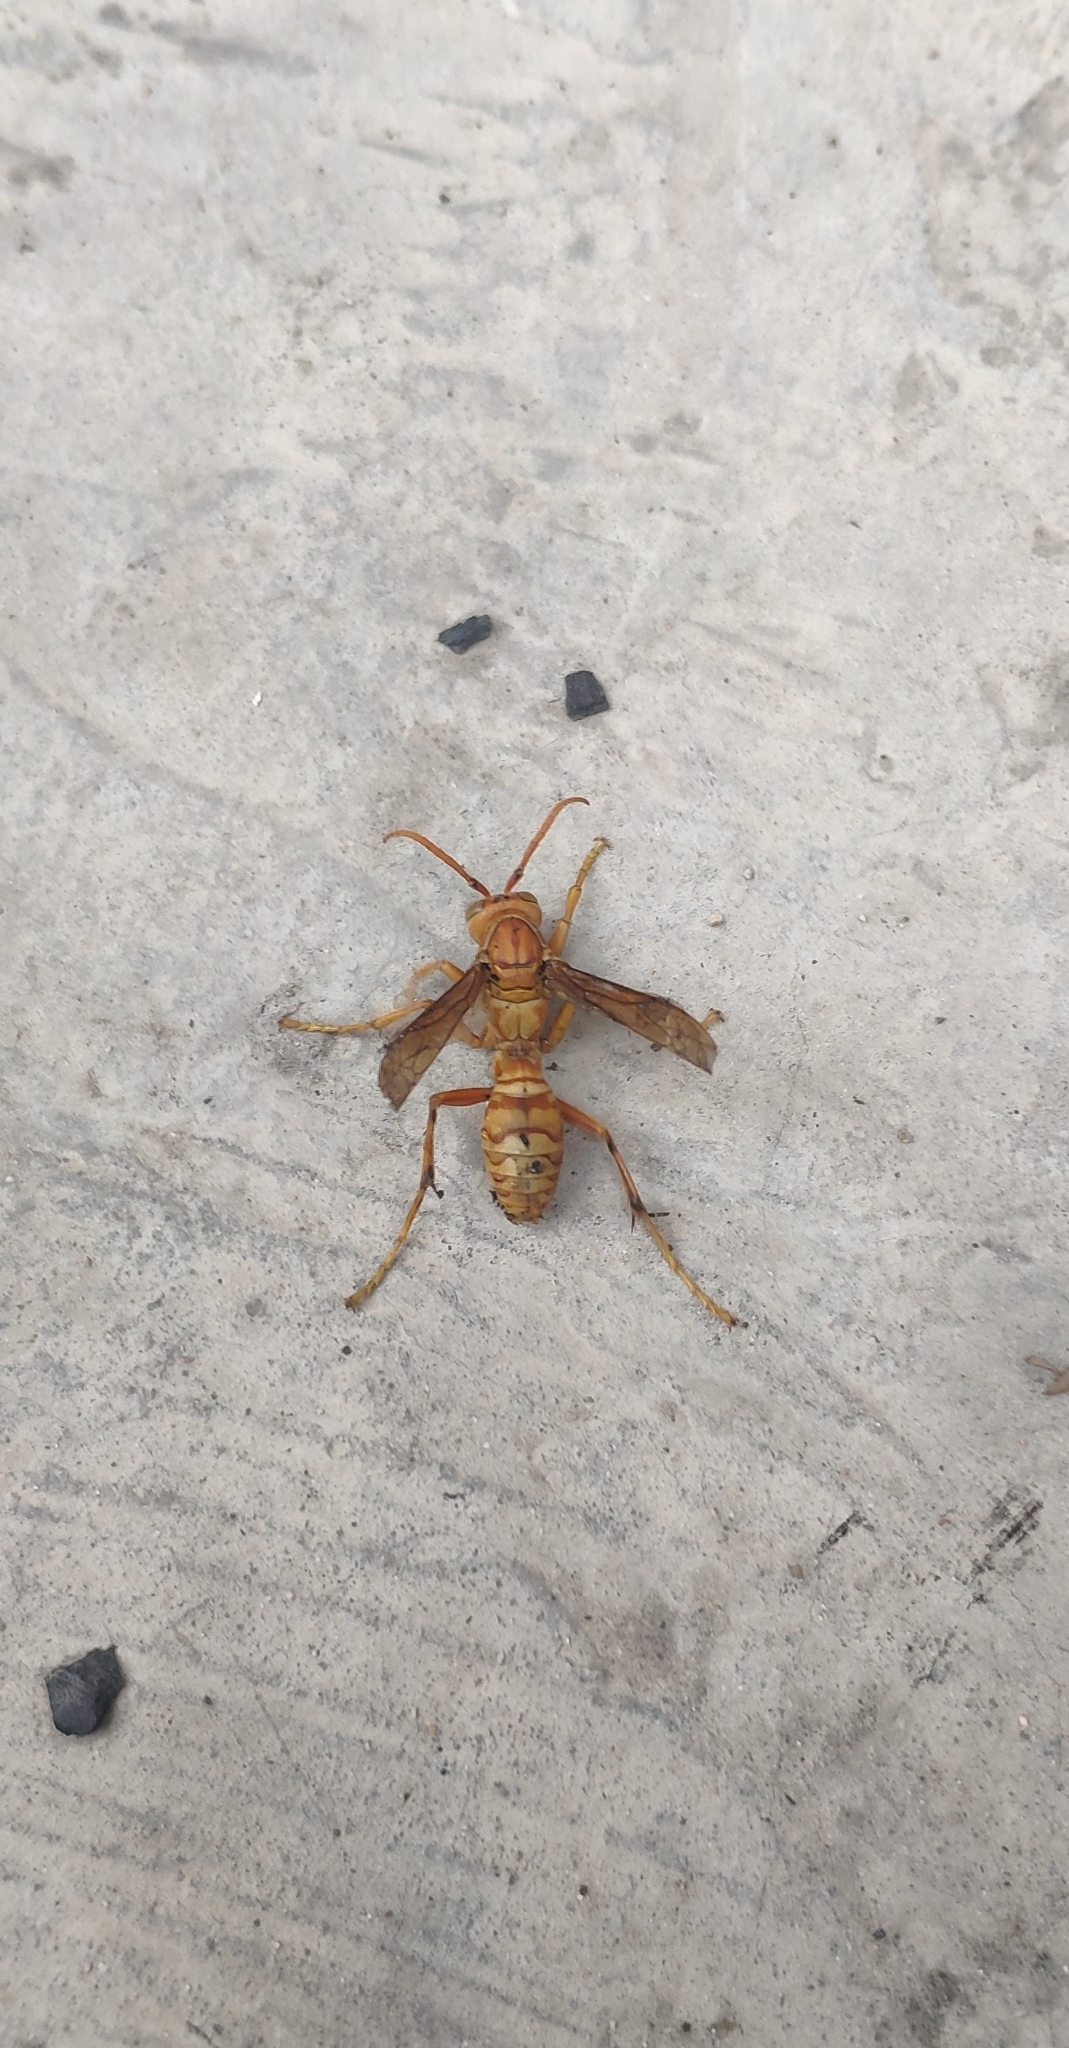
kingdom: Animalia
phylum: Arthropoda
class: Insecta
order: Hymenoptera
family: Eumenidae
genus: Polistes
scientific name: Polistes wattii
